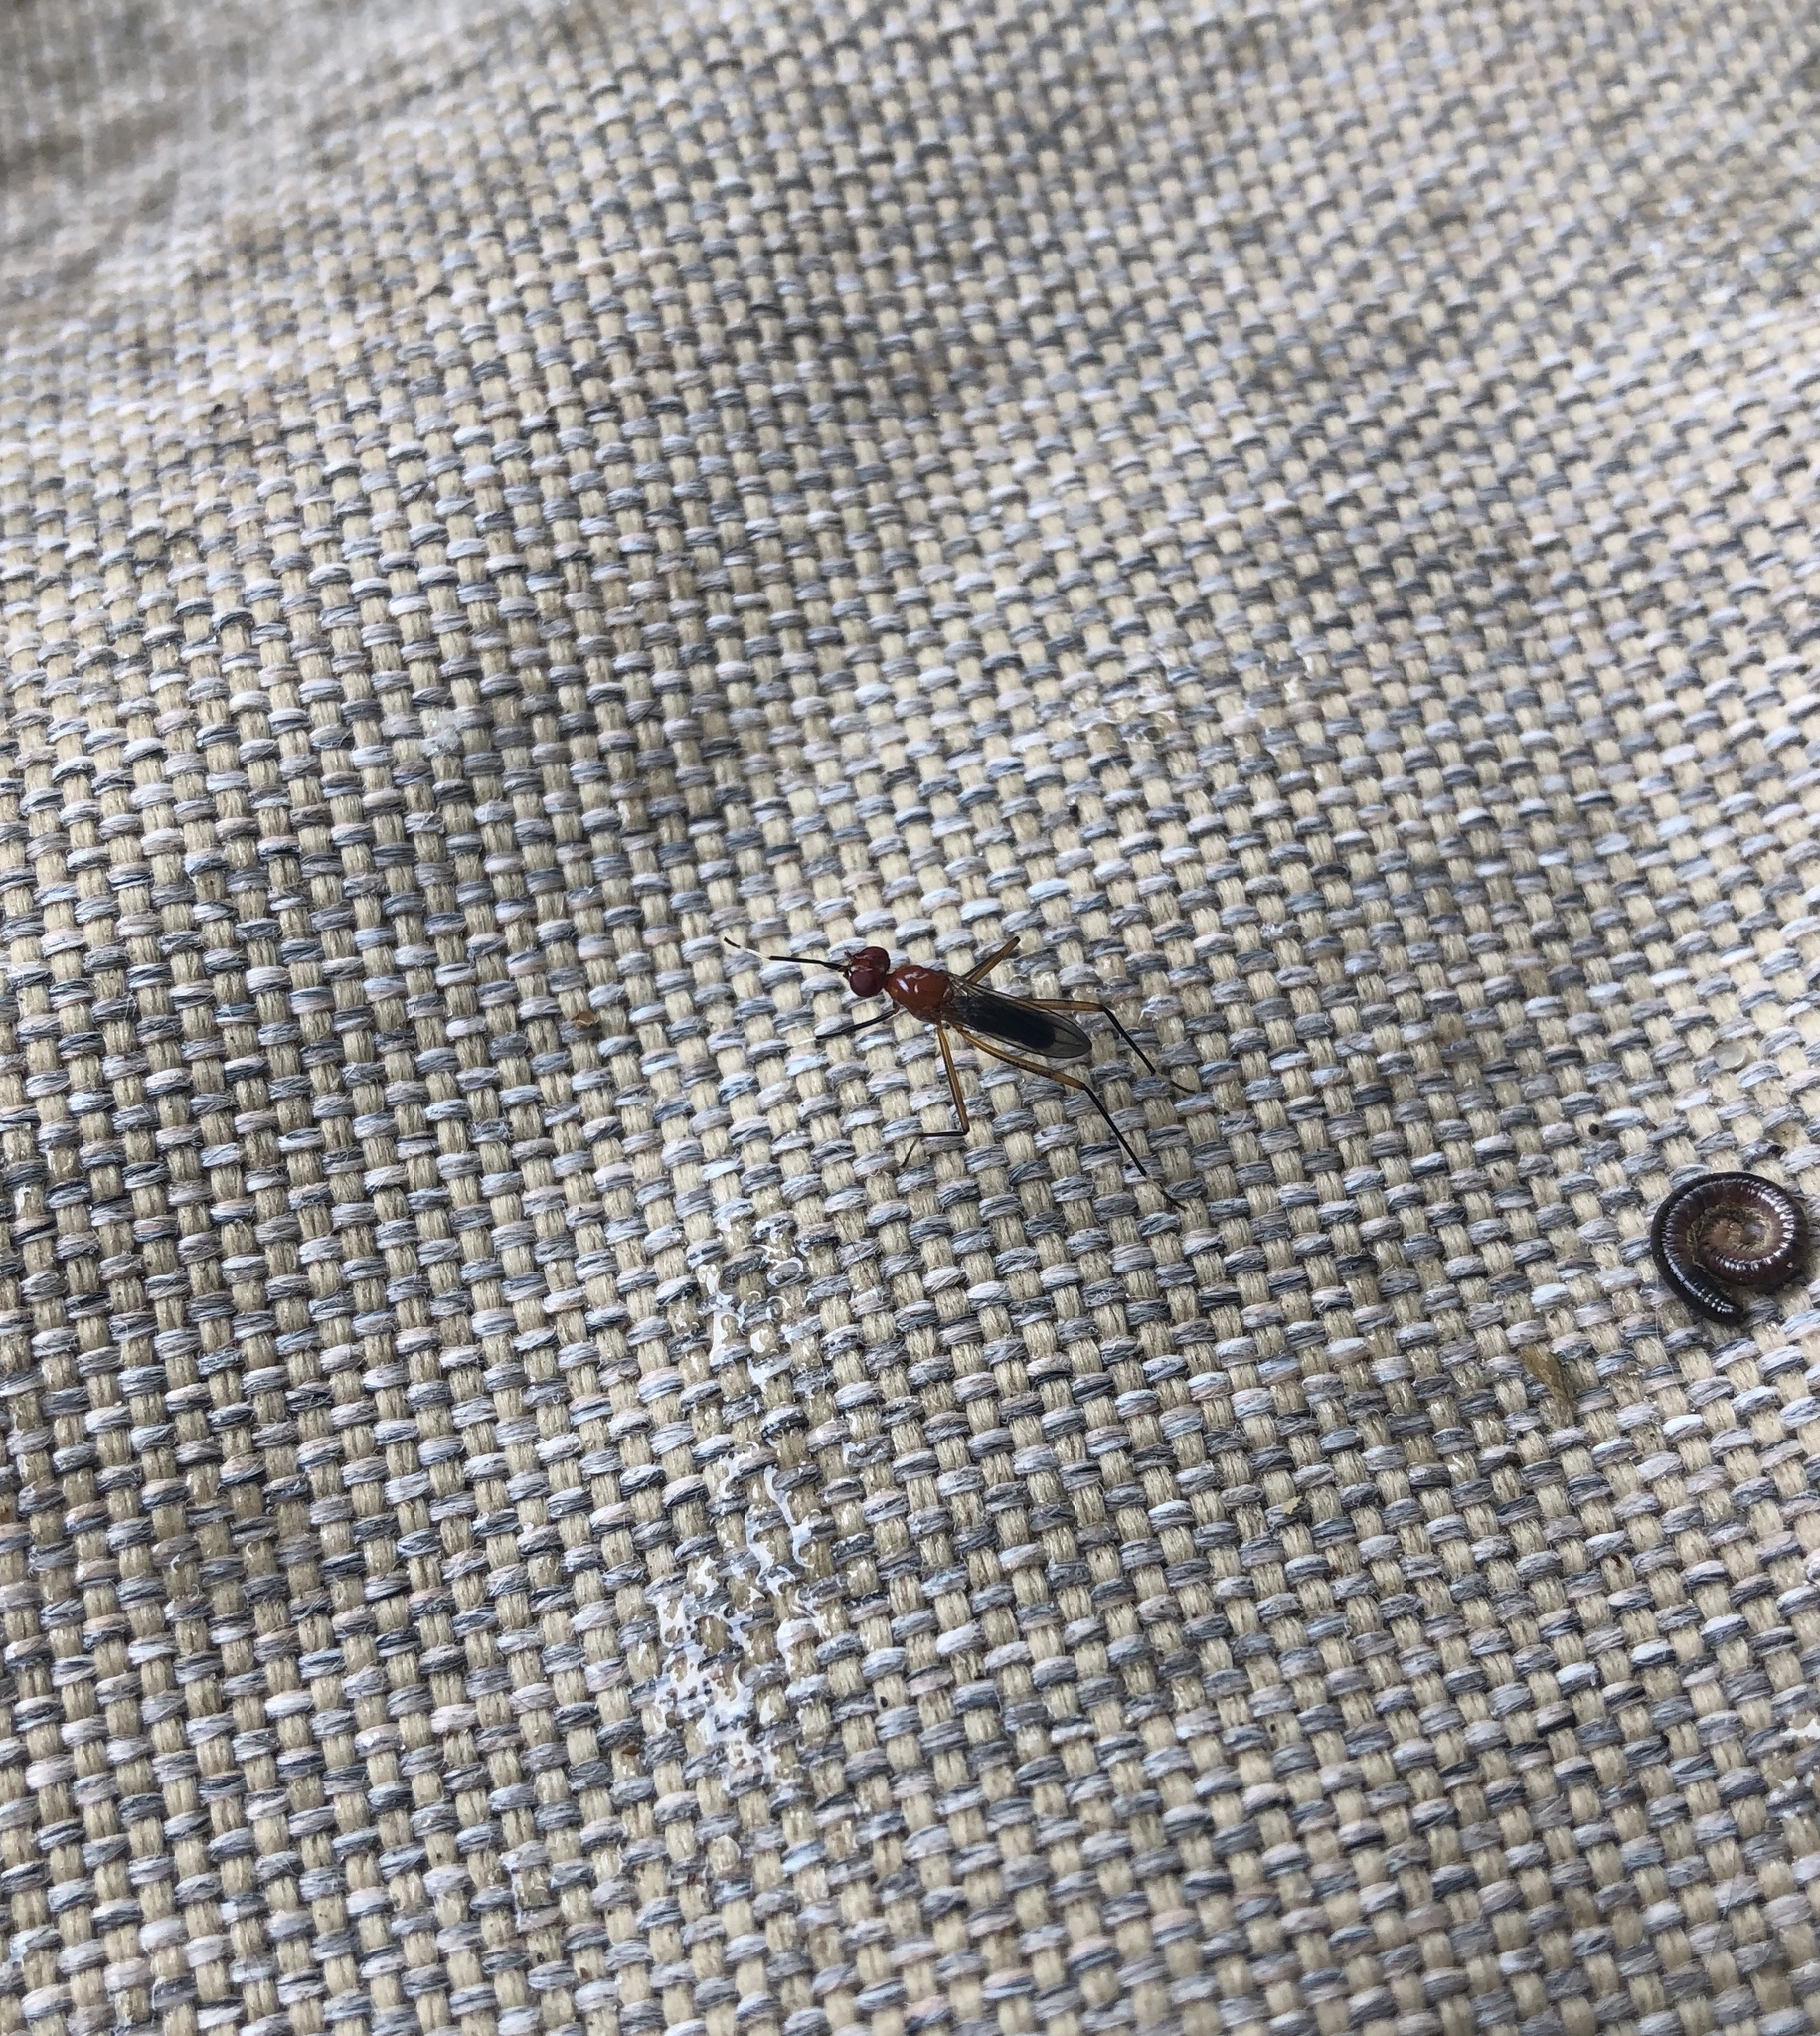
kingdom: Animalia
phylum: Arthropoda
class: Insecta
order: Diptera
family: Micropezidae
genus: Grallipeza
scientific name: Grallipeza nebulosa
